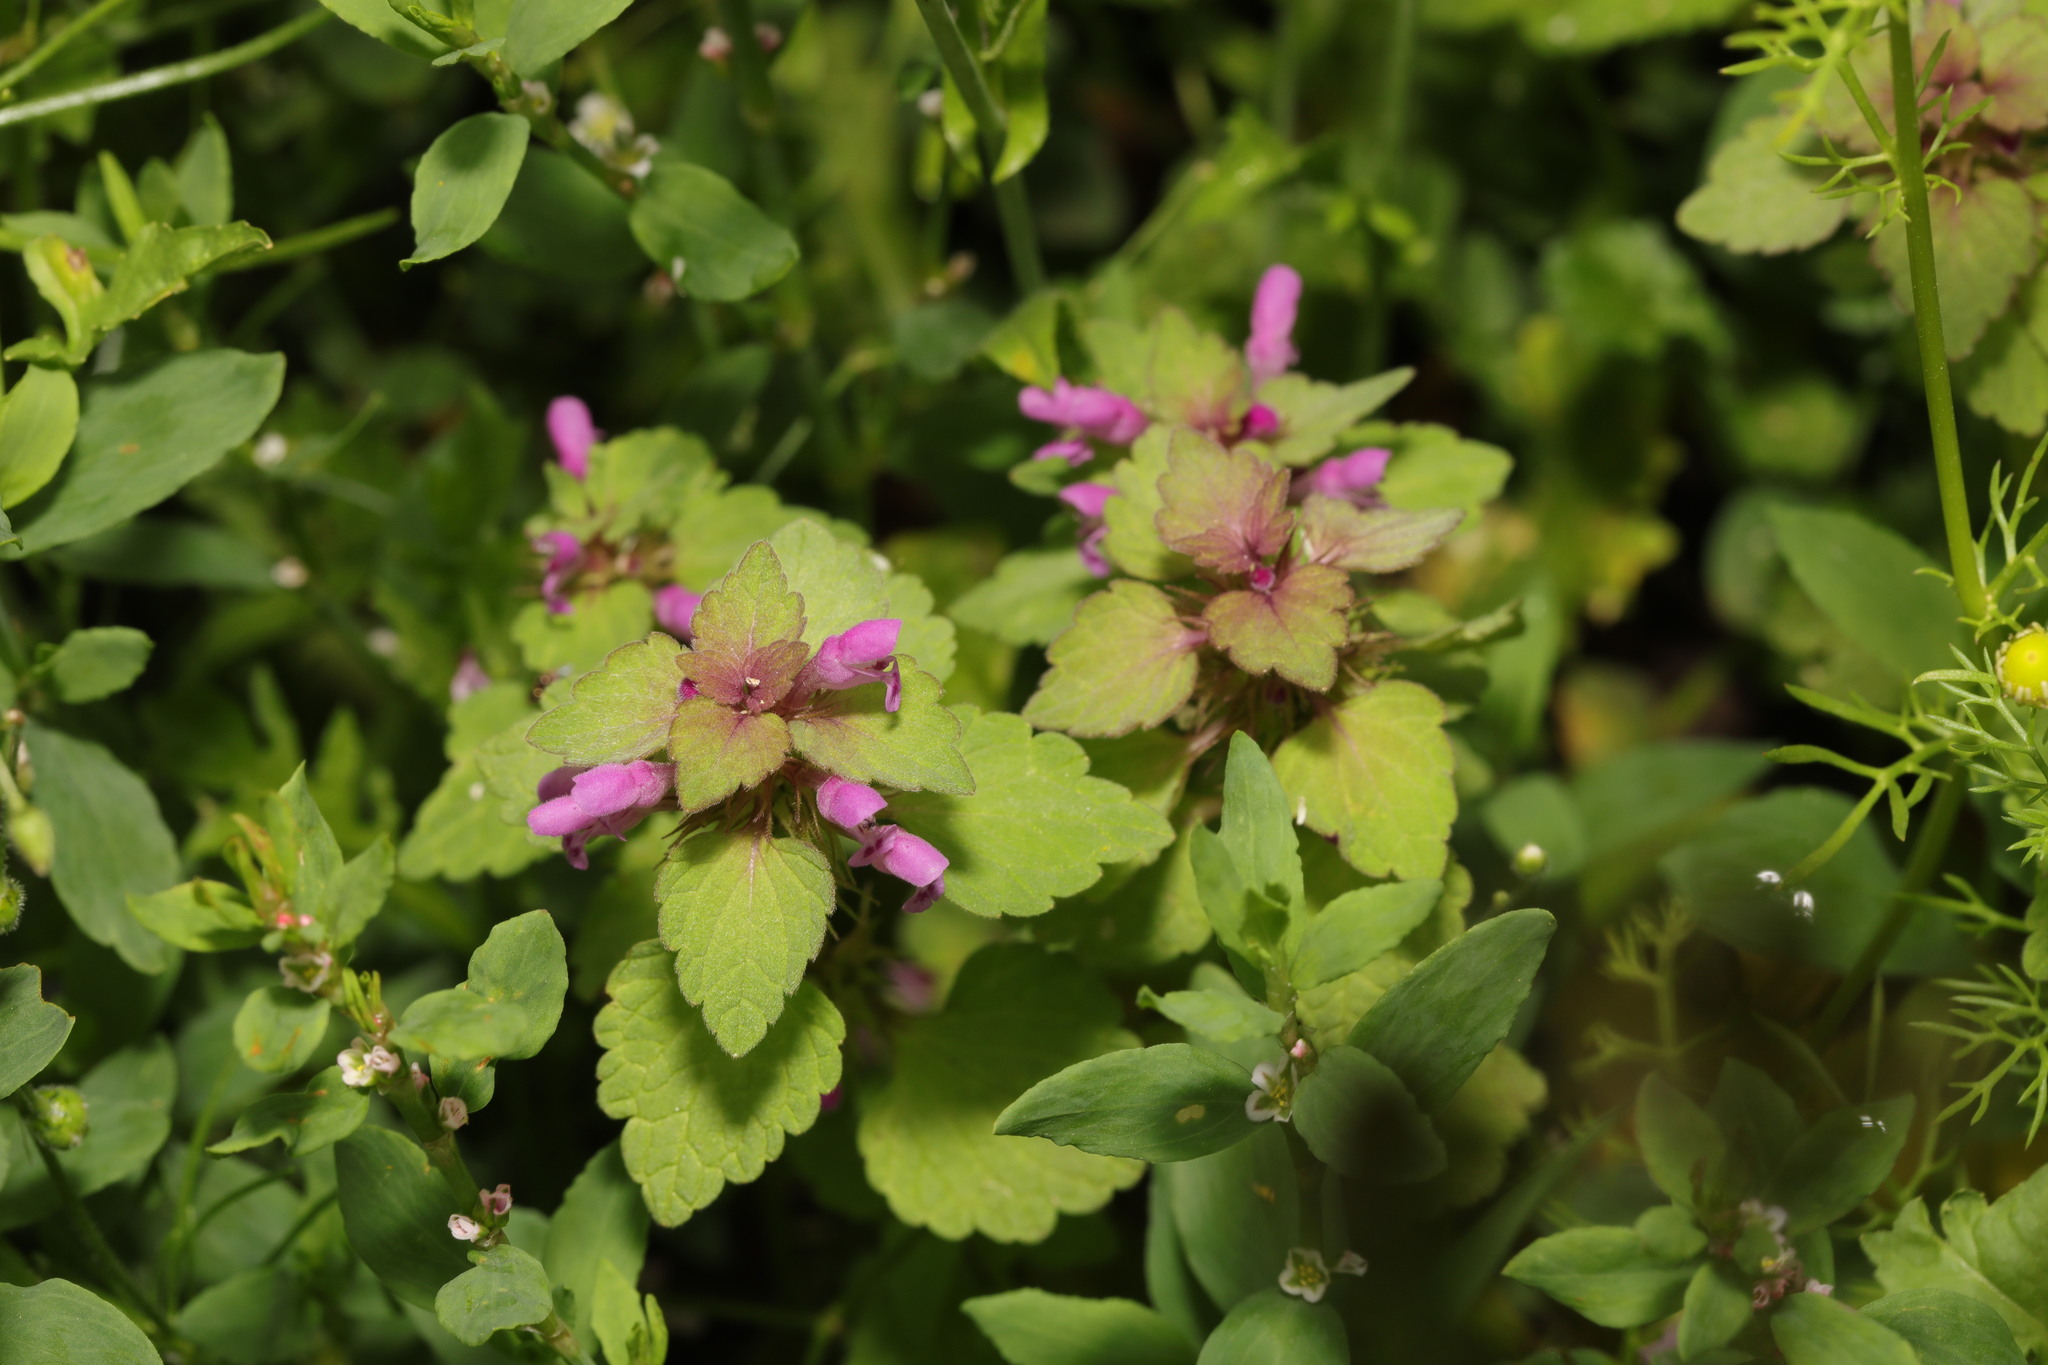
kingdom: Plantae
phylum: Tracheophyta
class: Magnoliopsida
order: Lamiales
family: Lamiaceae
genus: Lamium
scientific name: Lamium purpureum
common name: Red dead-nettle
